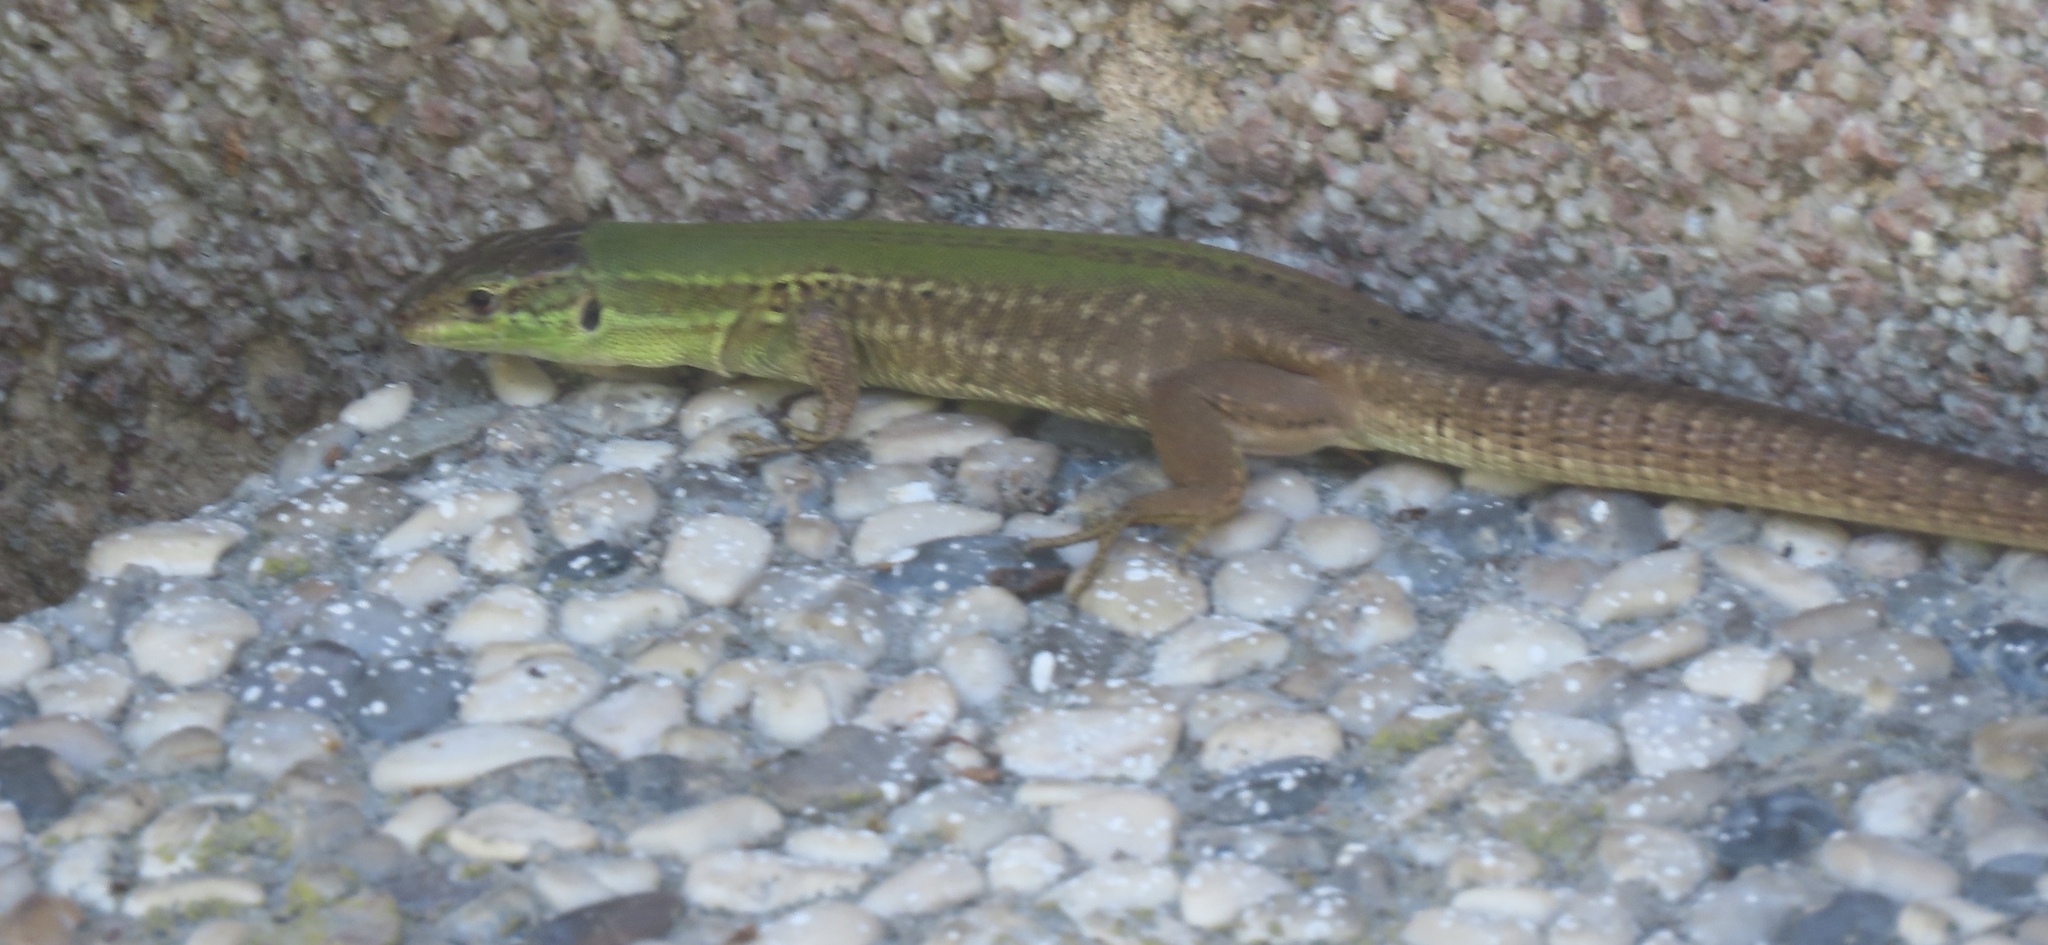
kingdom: Animalia
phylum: Chordata
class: Squamata
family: Lacertidae
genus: Podarcis
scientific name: Podarcis siculus
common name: Italian wall lizard
